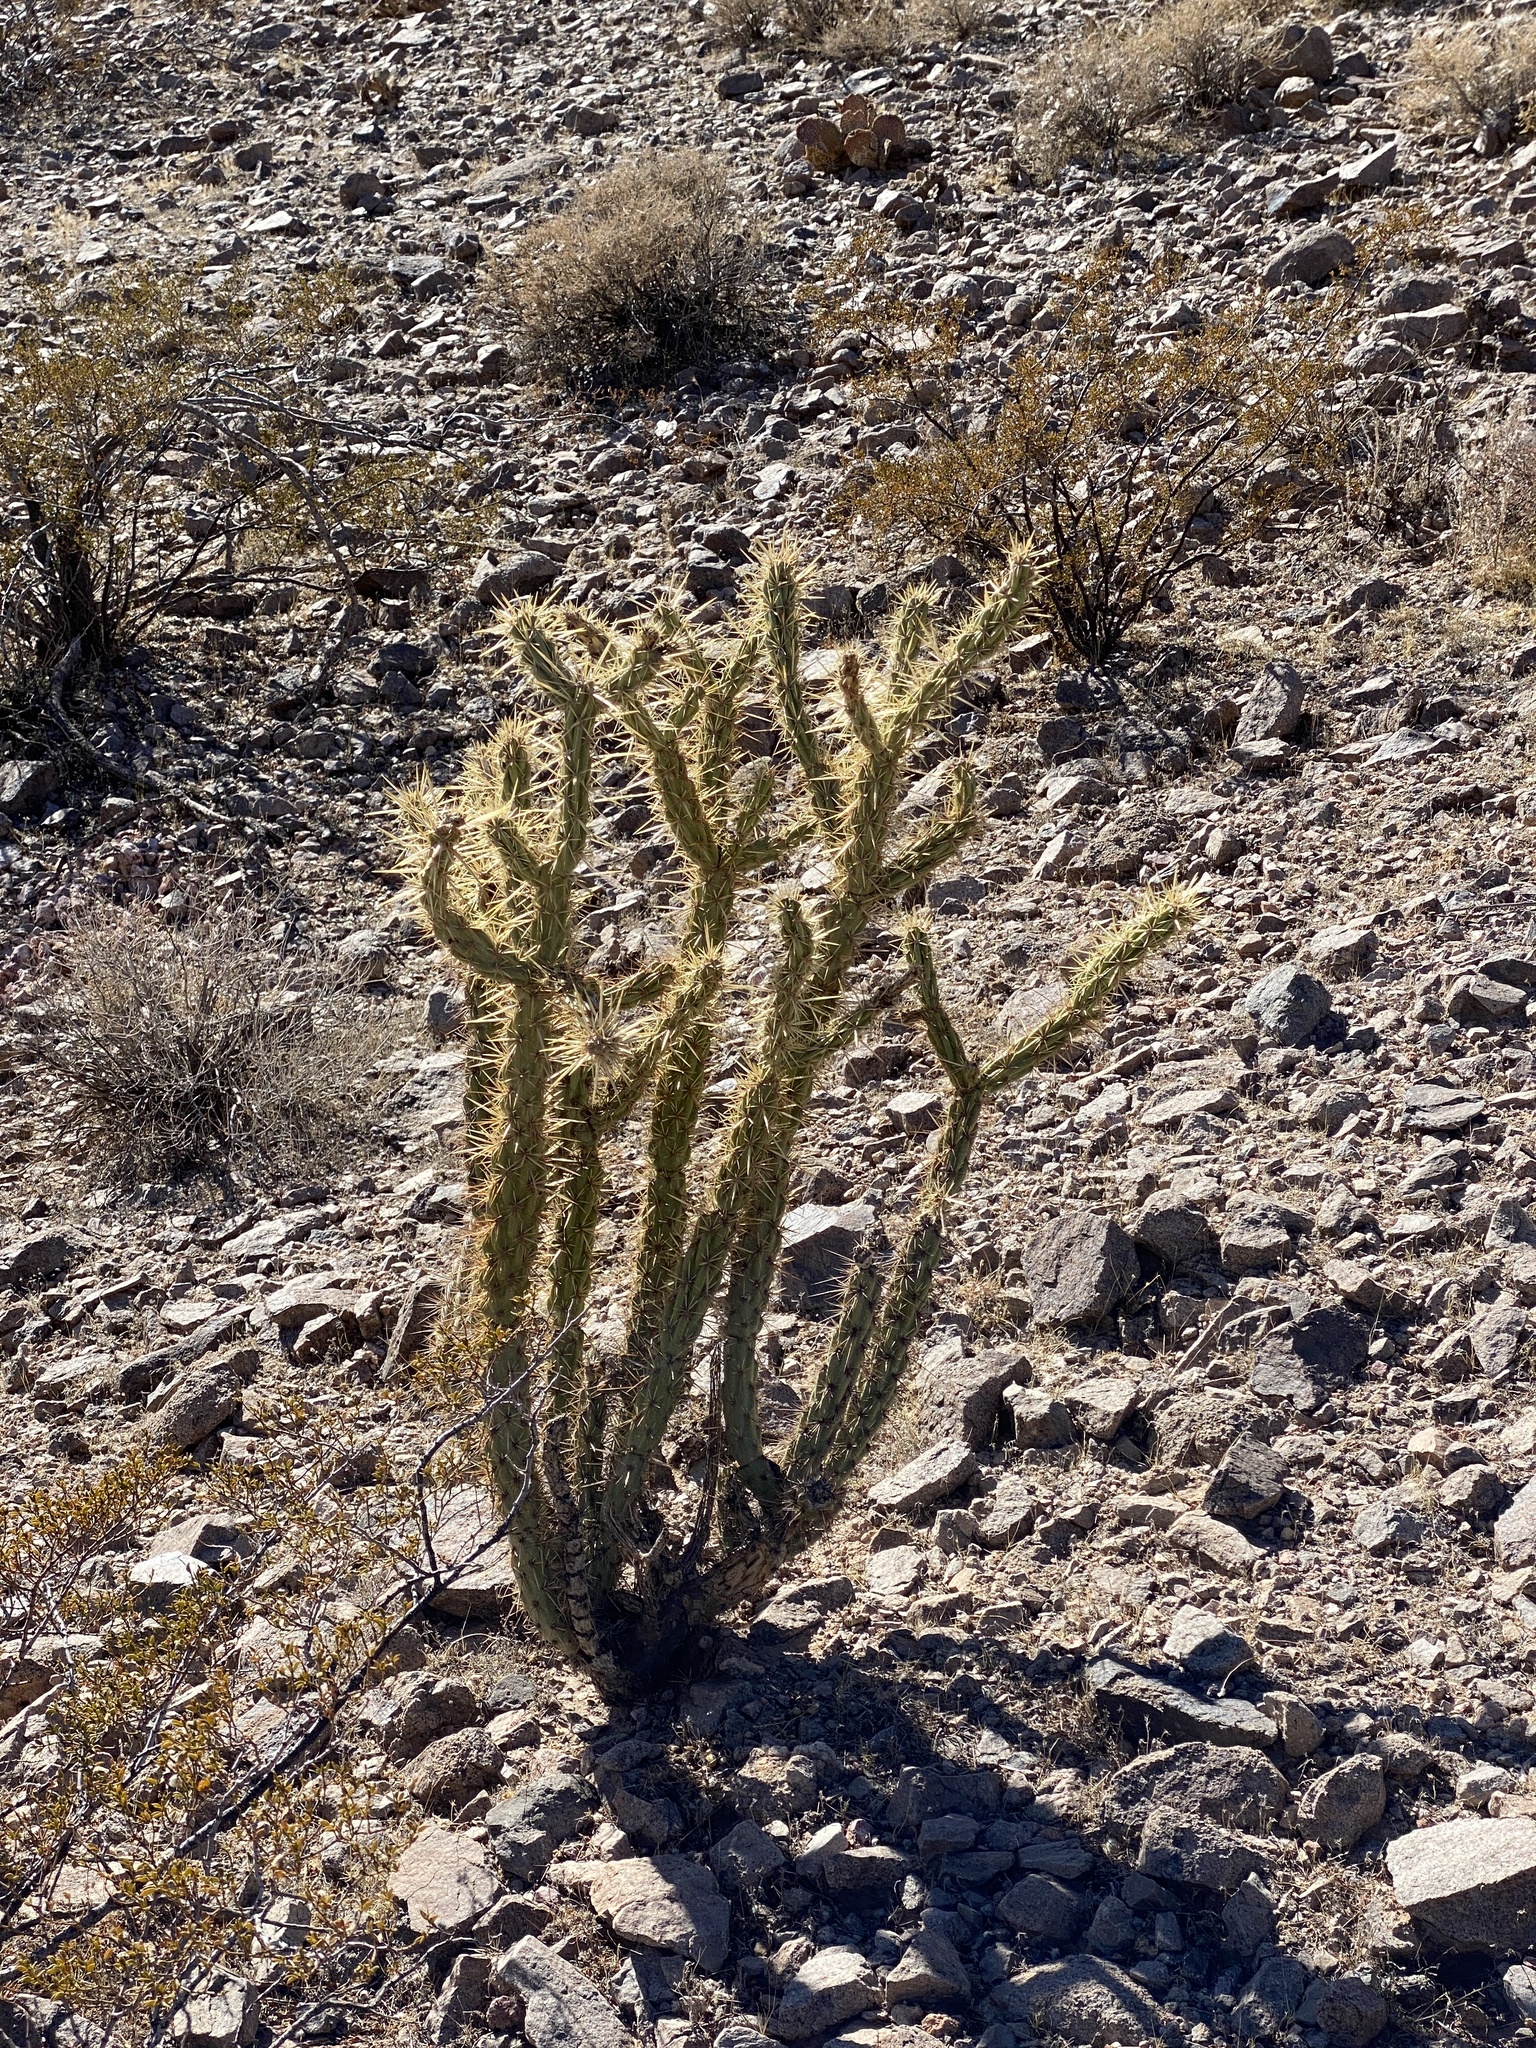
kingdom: Plantae
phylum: Tracheophyta
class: Magnoliopsida
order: Caryophyllales
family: Cactaceae
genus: Cylindropuntia
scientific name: Cylindropuntia acanthocarpa
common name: Buckhorn cholla
